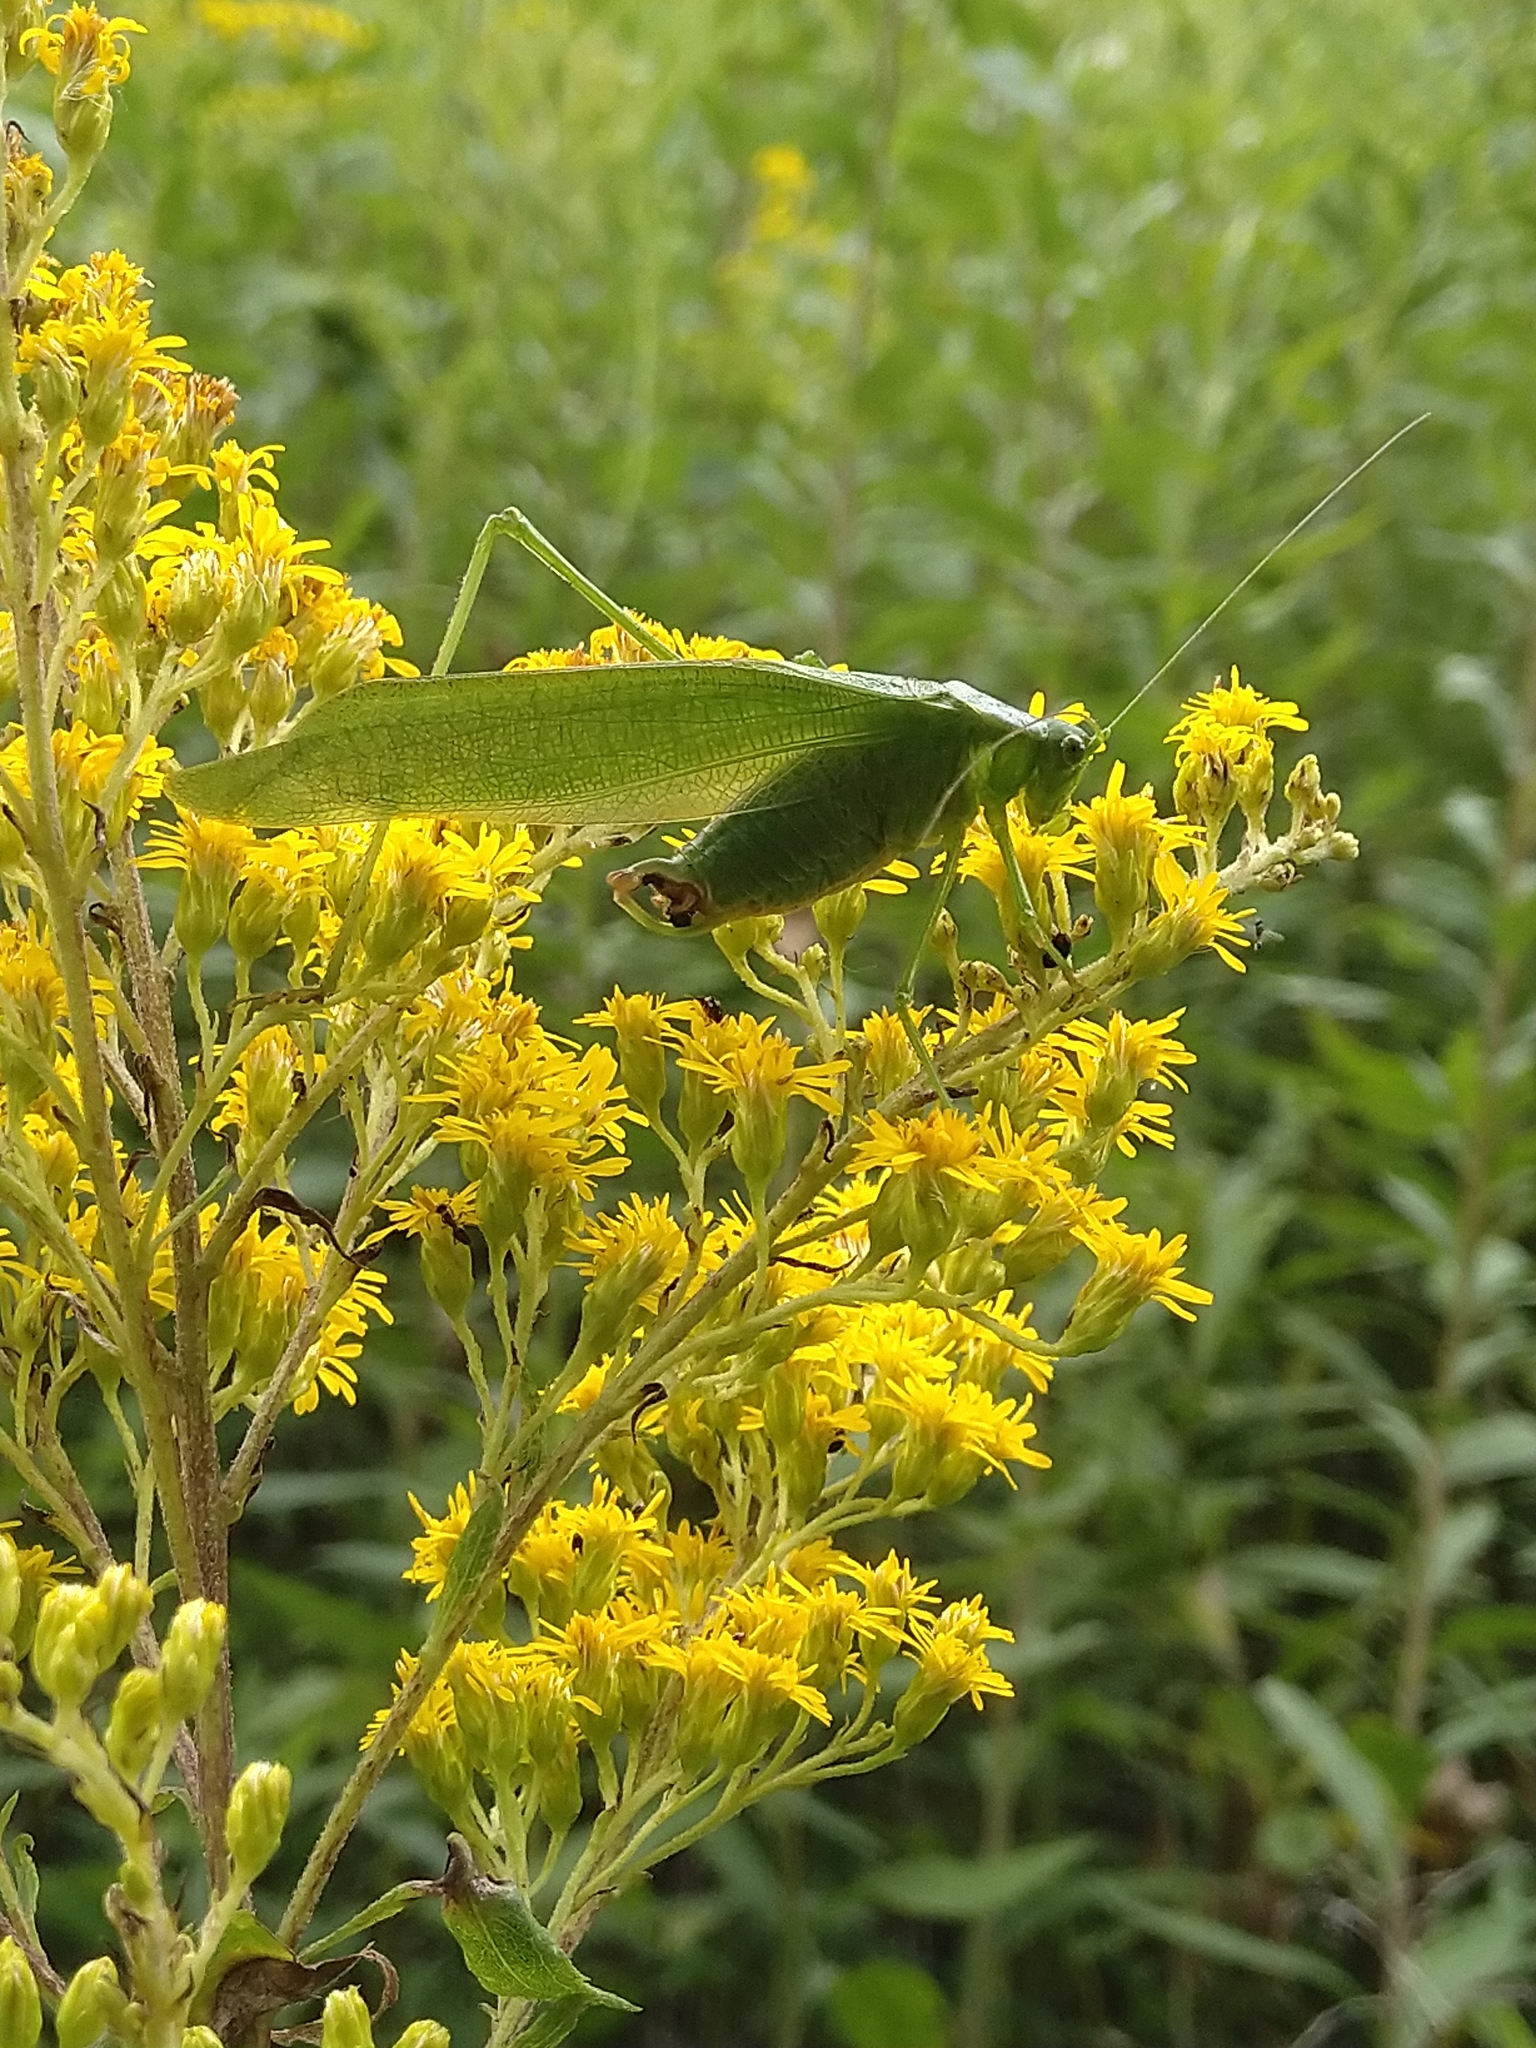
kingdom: Animalia
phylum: Arthropoda
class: Insecta
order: Orthoptera
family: Tettigoniidae
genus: Scudderia
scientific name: Scudderia
